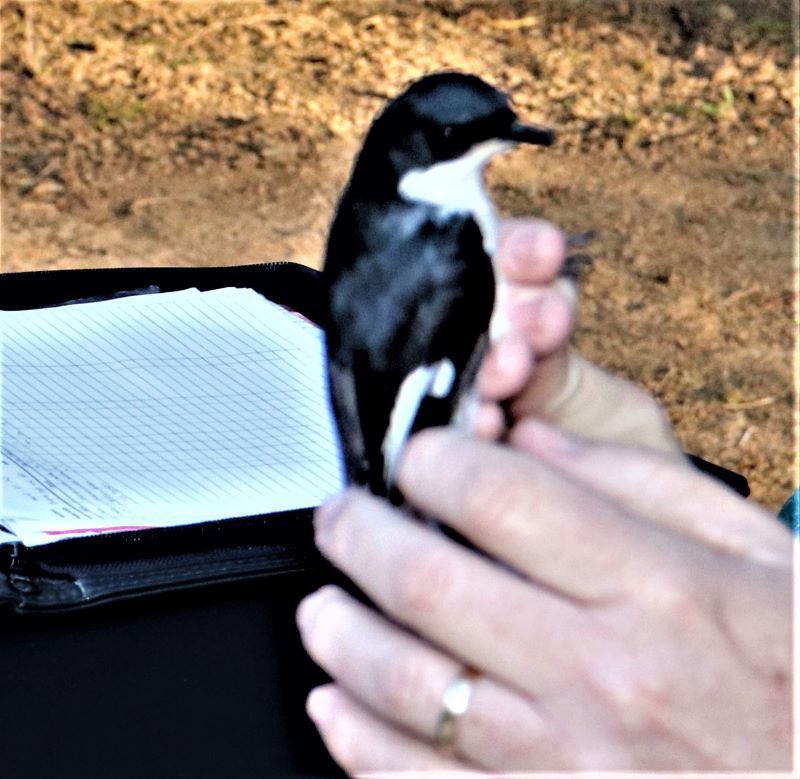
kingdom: Animalia
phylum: Chordata
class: Aves
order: Passeriformes
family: Muscicapidae
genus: Sigelus
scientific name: Sigelus silens
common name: Fiscal flycatcher
